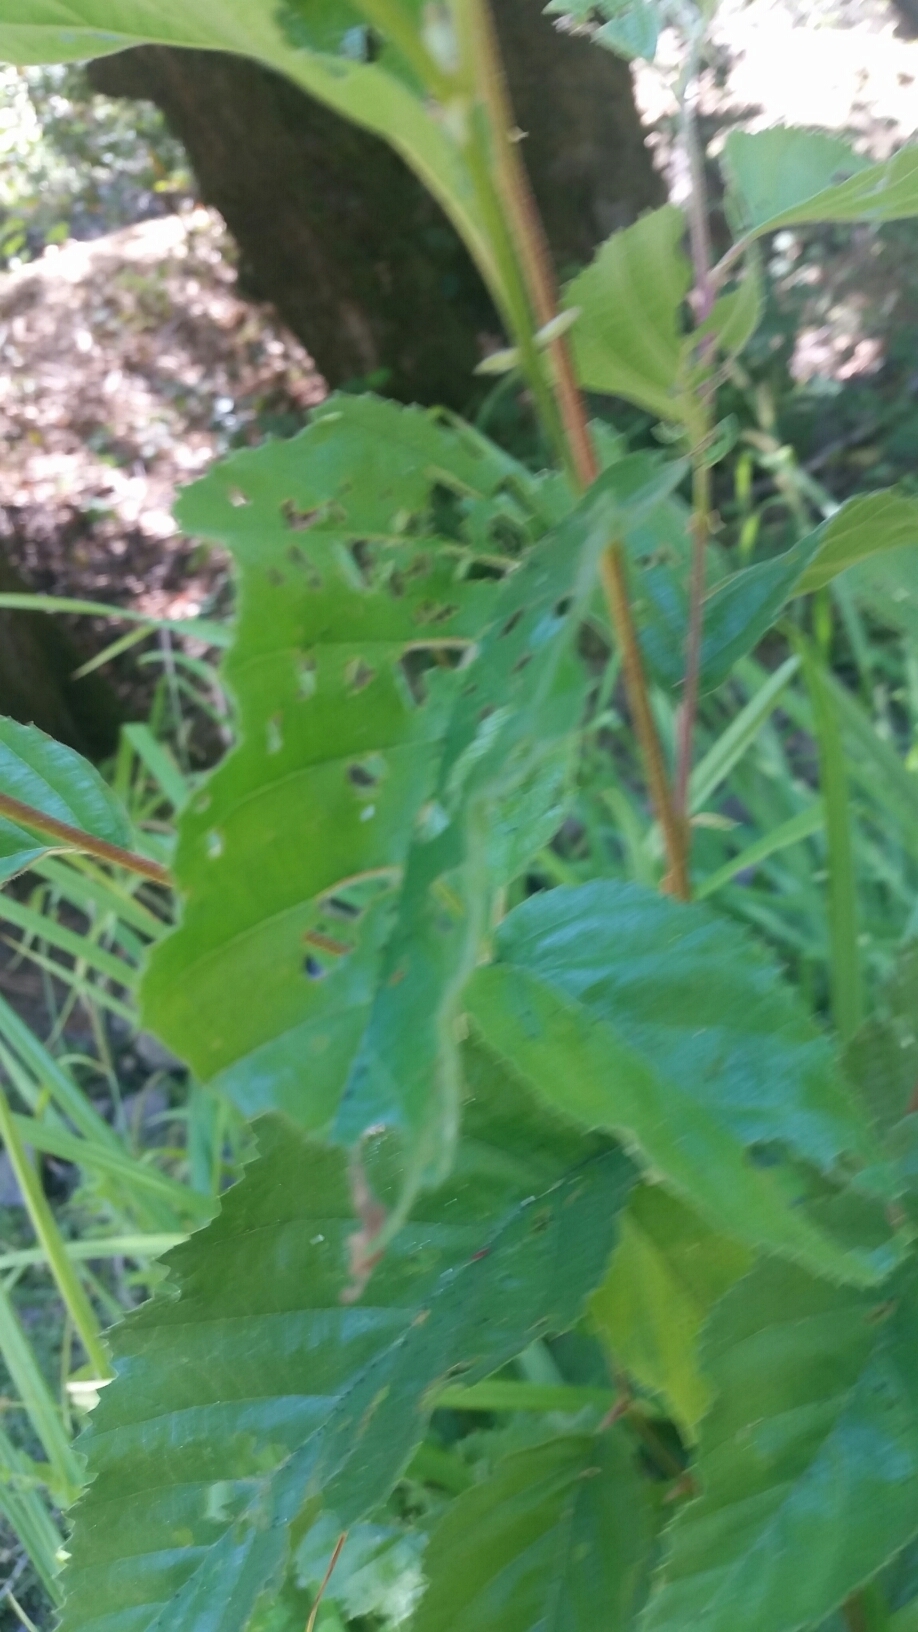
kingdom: Plantae
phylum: Tracheophyta
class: Magnoliopsida
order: Fagales
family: Betulaceae
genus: Alnus
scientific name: Alnus rhombifolia
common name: California alder
